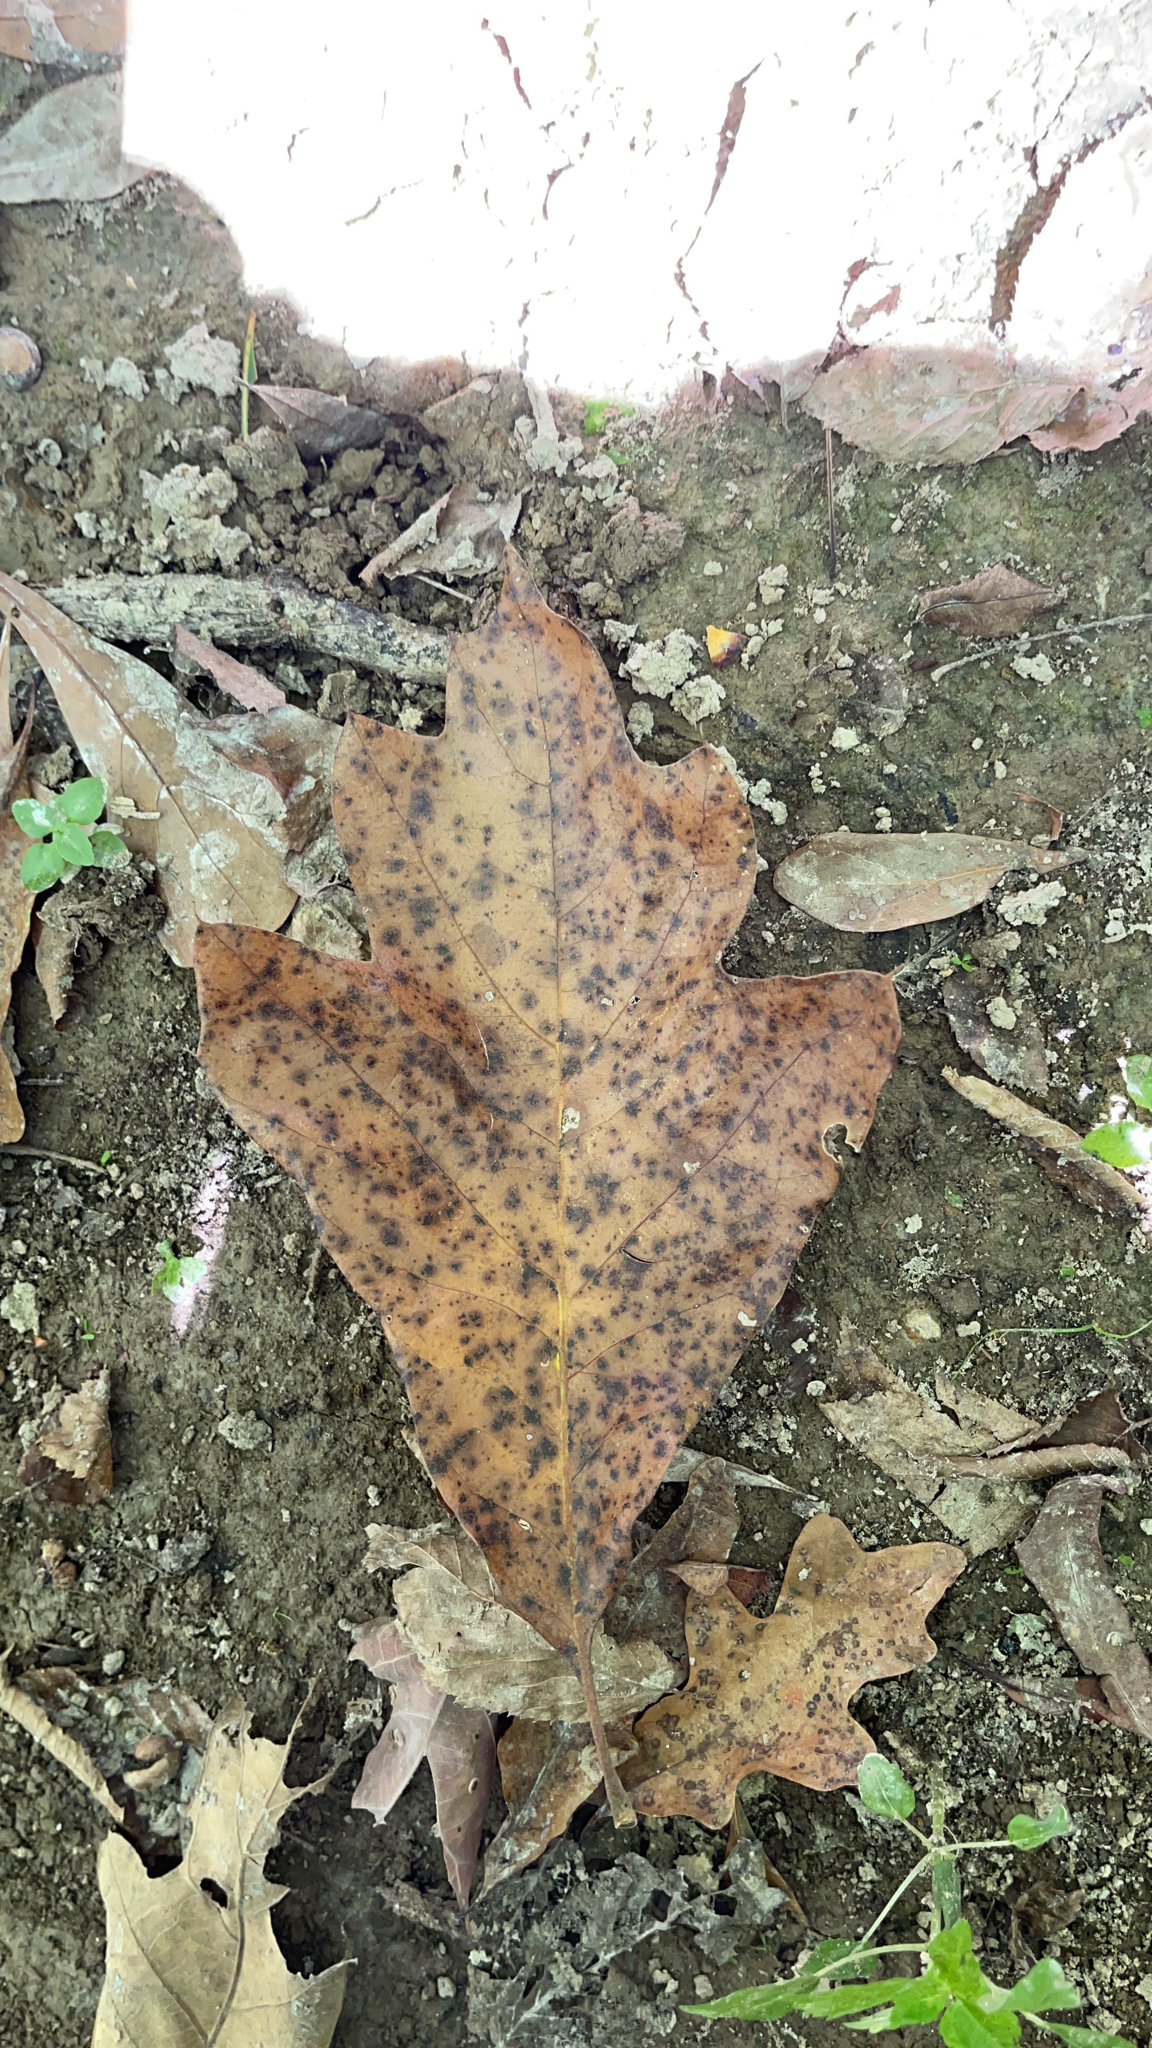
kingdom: Plantae
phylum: Tracheophyta
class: Magnoliopsida
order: Fagales
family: Fagaceae
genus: Quercus
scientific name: Quercus falcata
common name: Southern red oak
